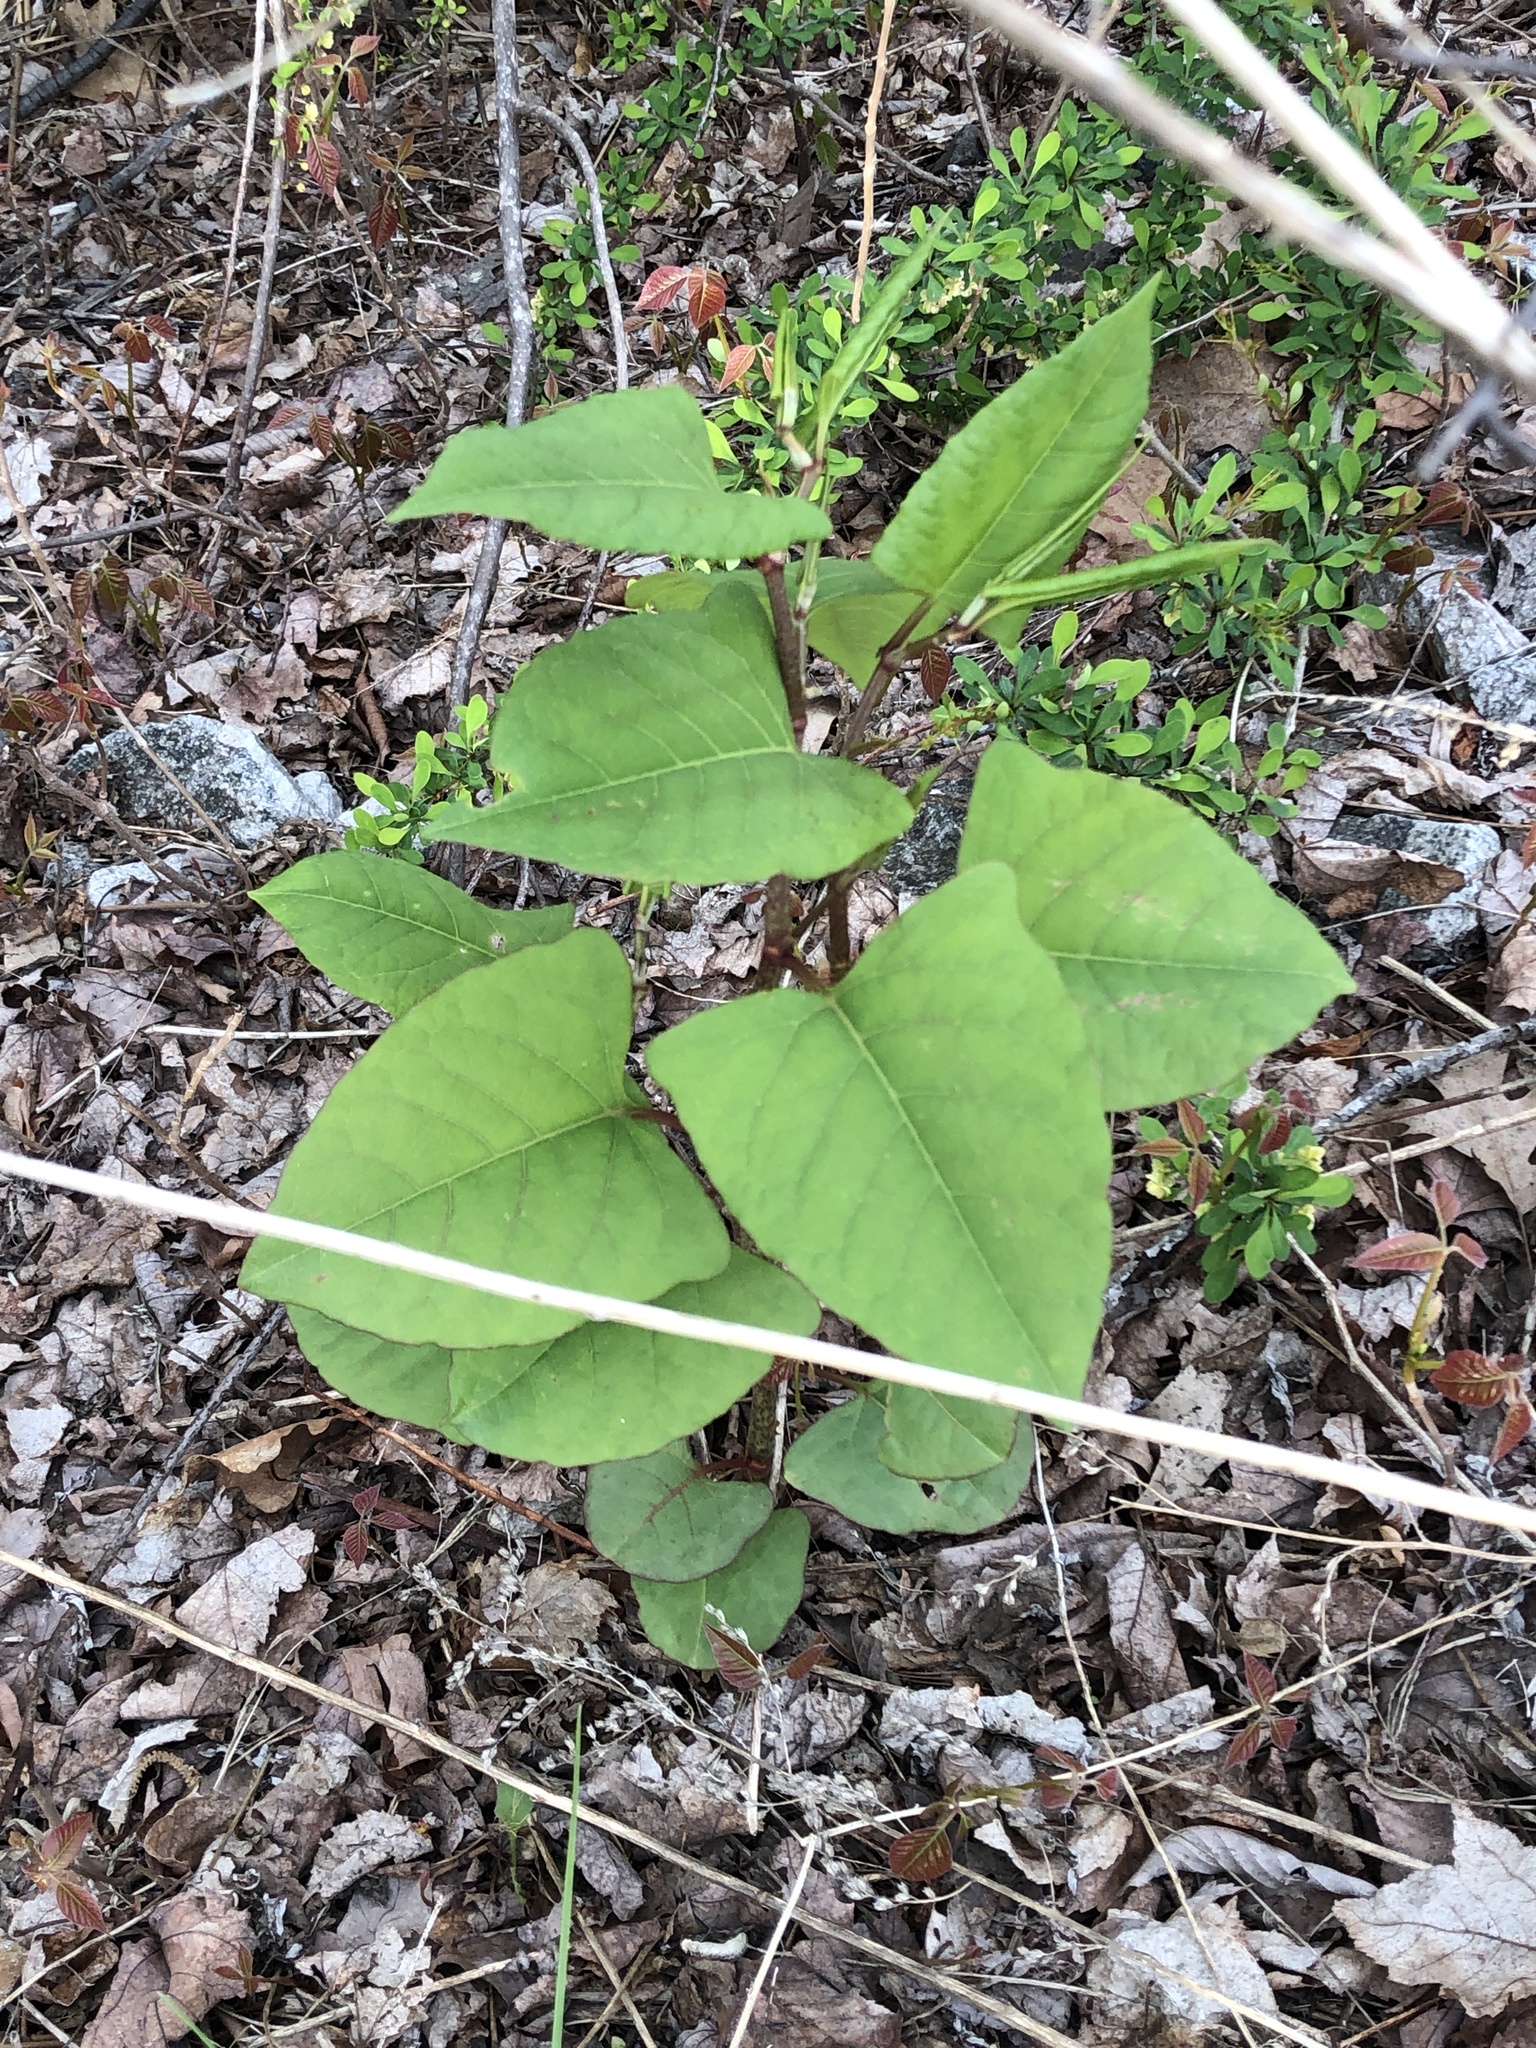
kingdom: Plantae
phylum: Tracheophyta
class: Magnoliopsida
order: Caryophyllales
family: Polygonaceae
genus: Reynoutria
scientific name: Reynoutria japonica
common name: Japanese knotweed
